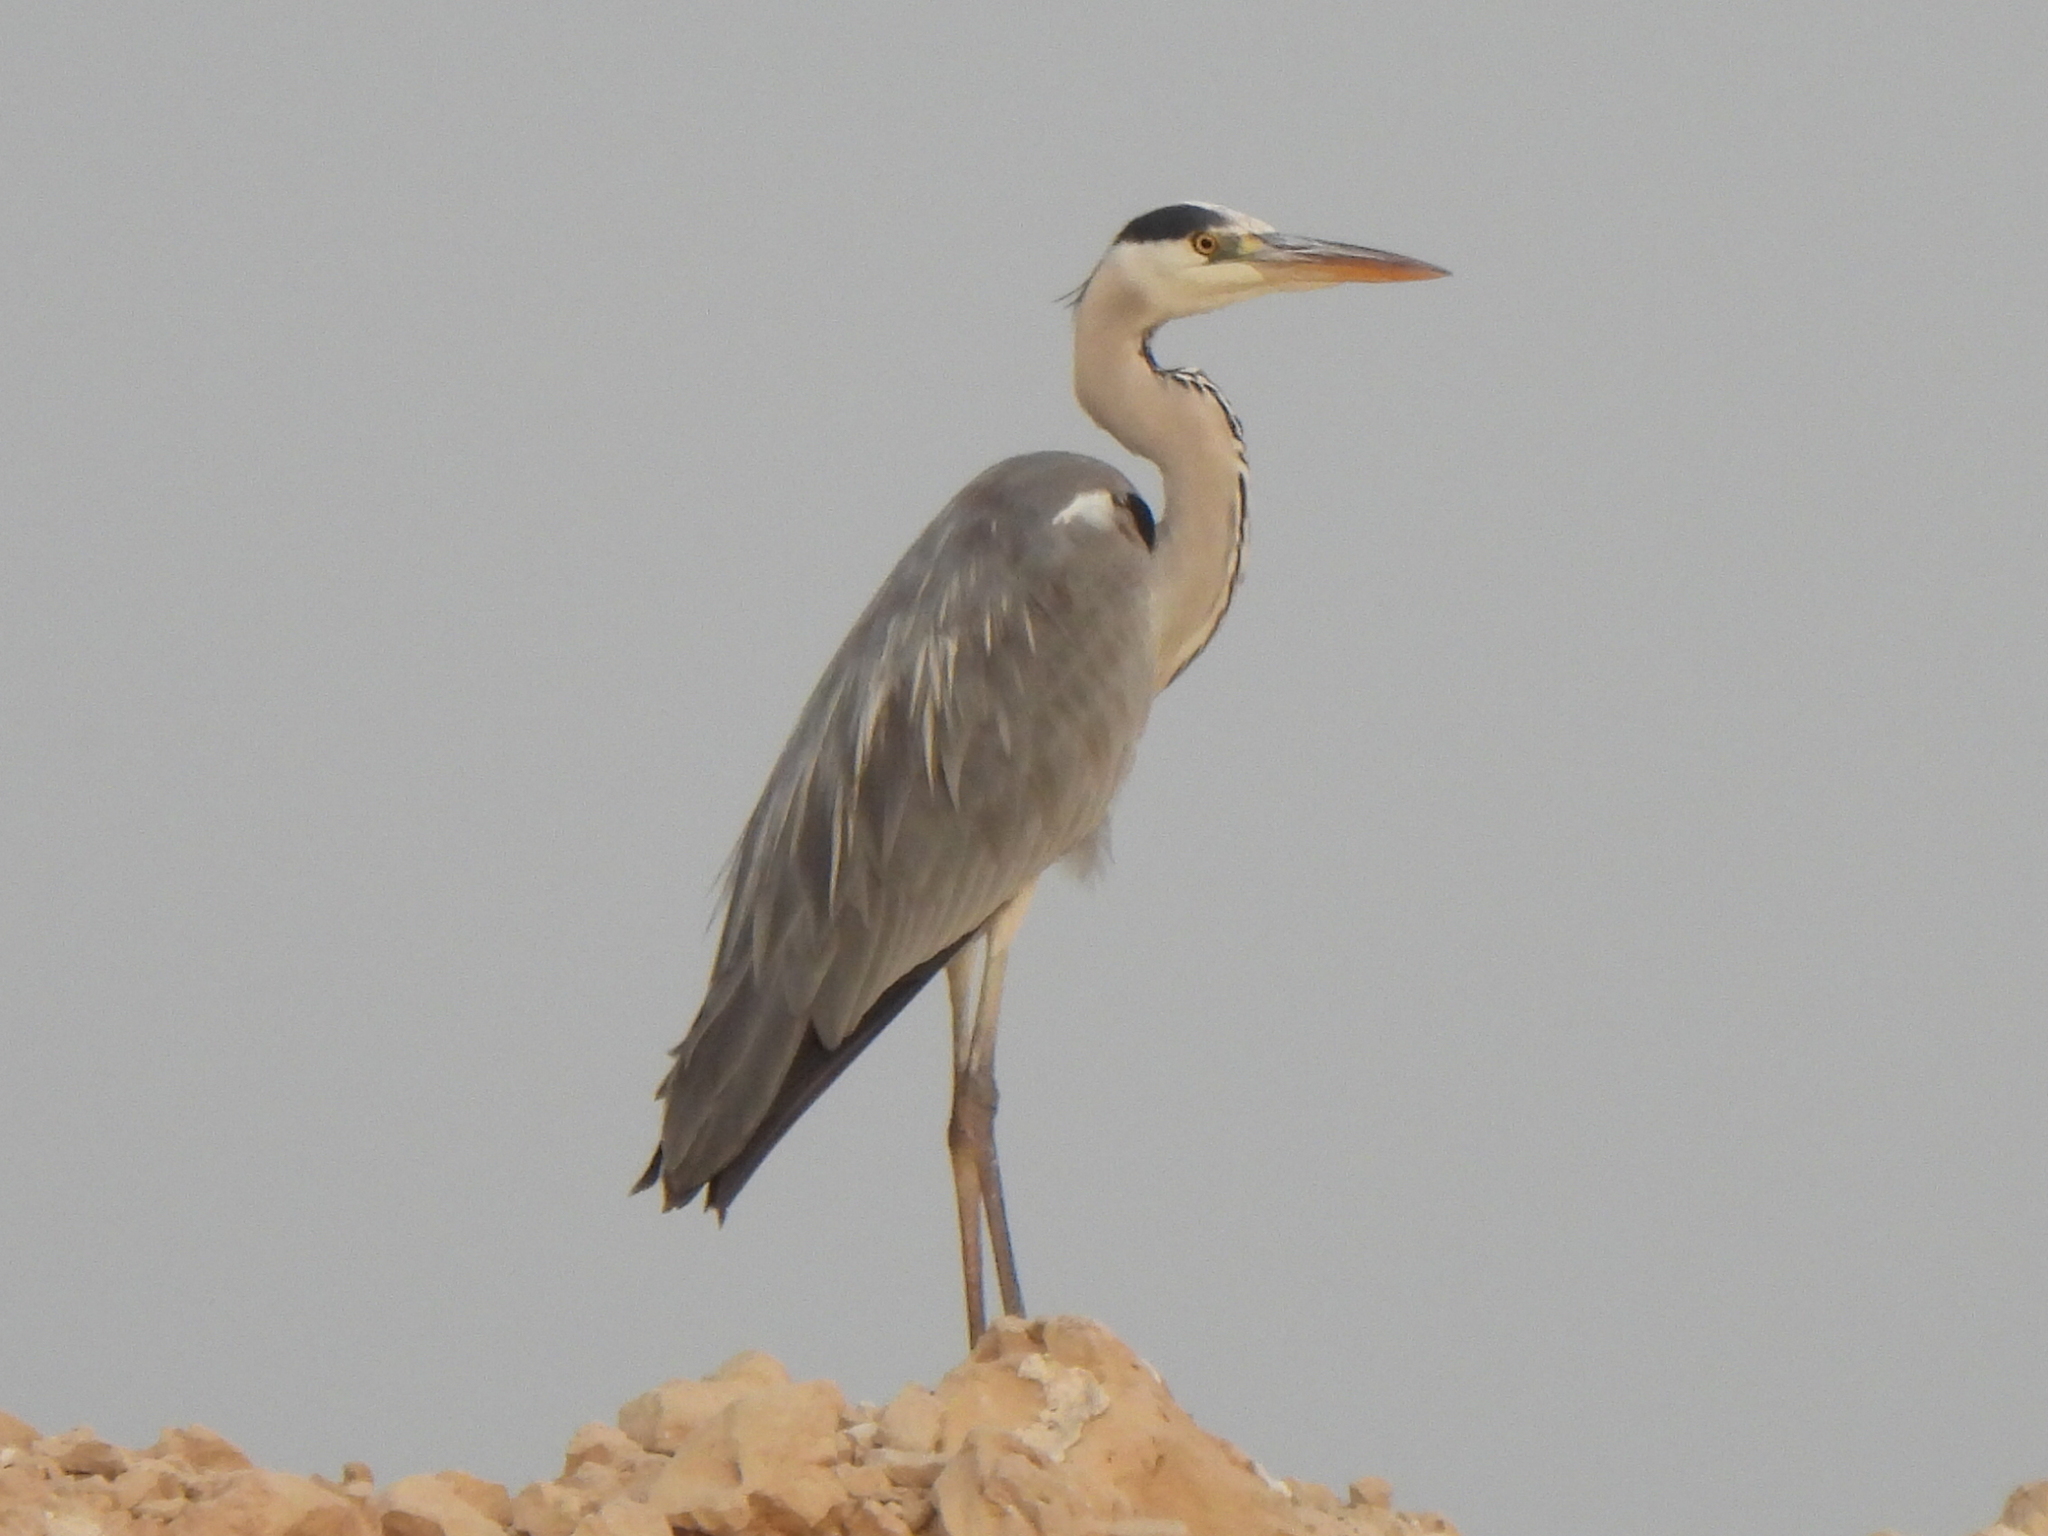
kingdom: Animalia
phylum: Chordata
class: Aves
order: Pelecaniformes
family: Ardeidae
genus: Ardea
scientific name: Ardea cinerea
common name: Grey heron
